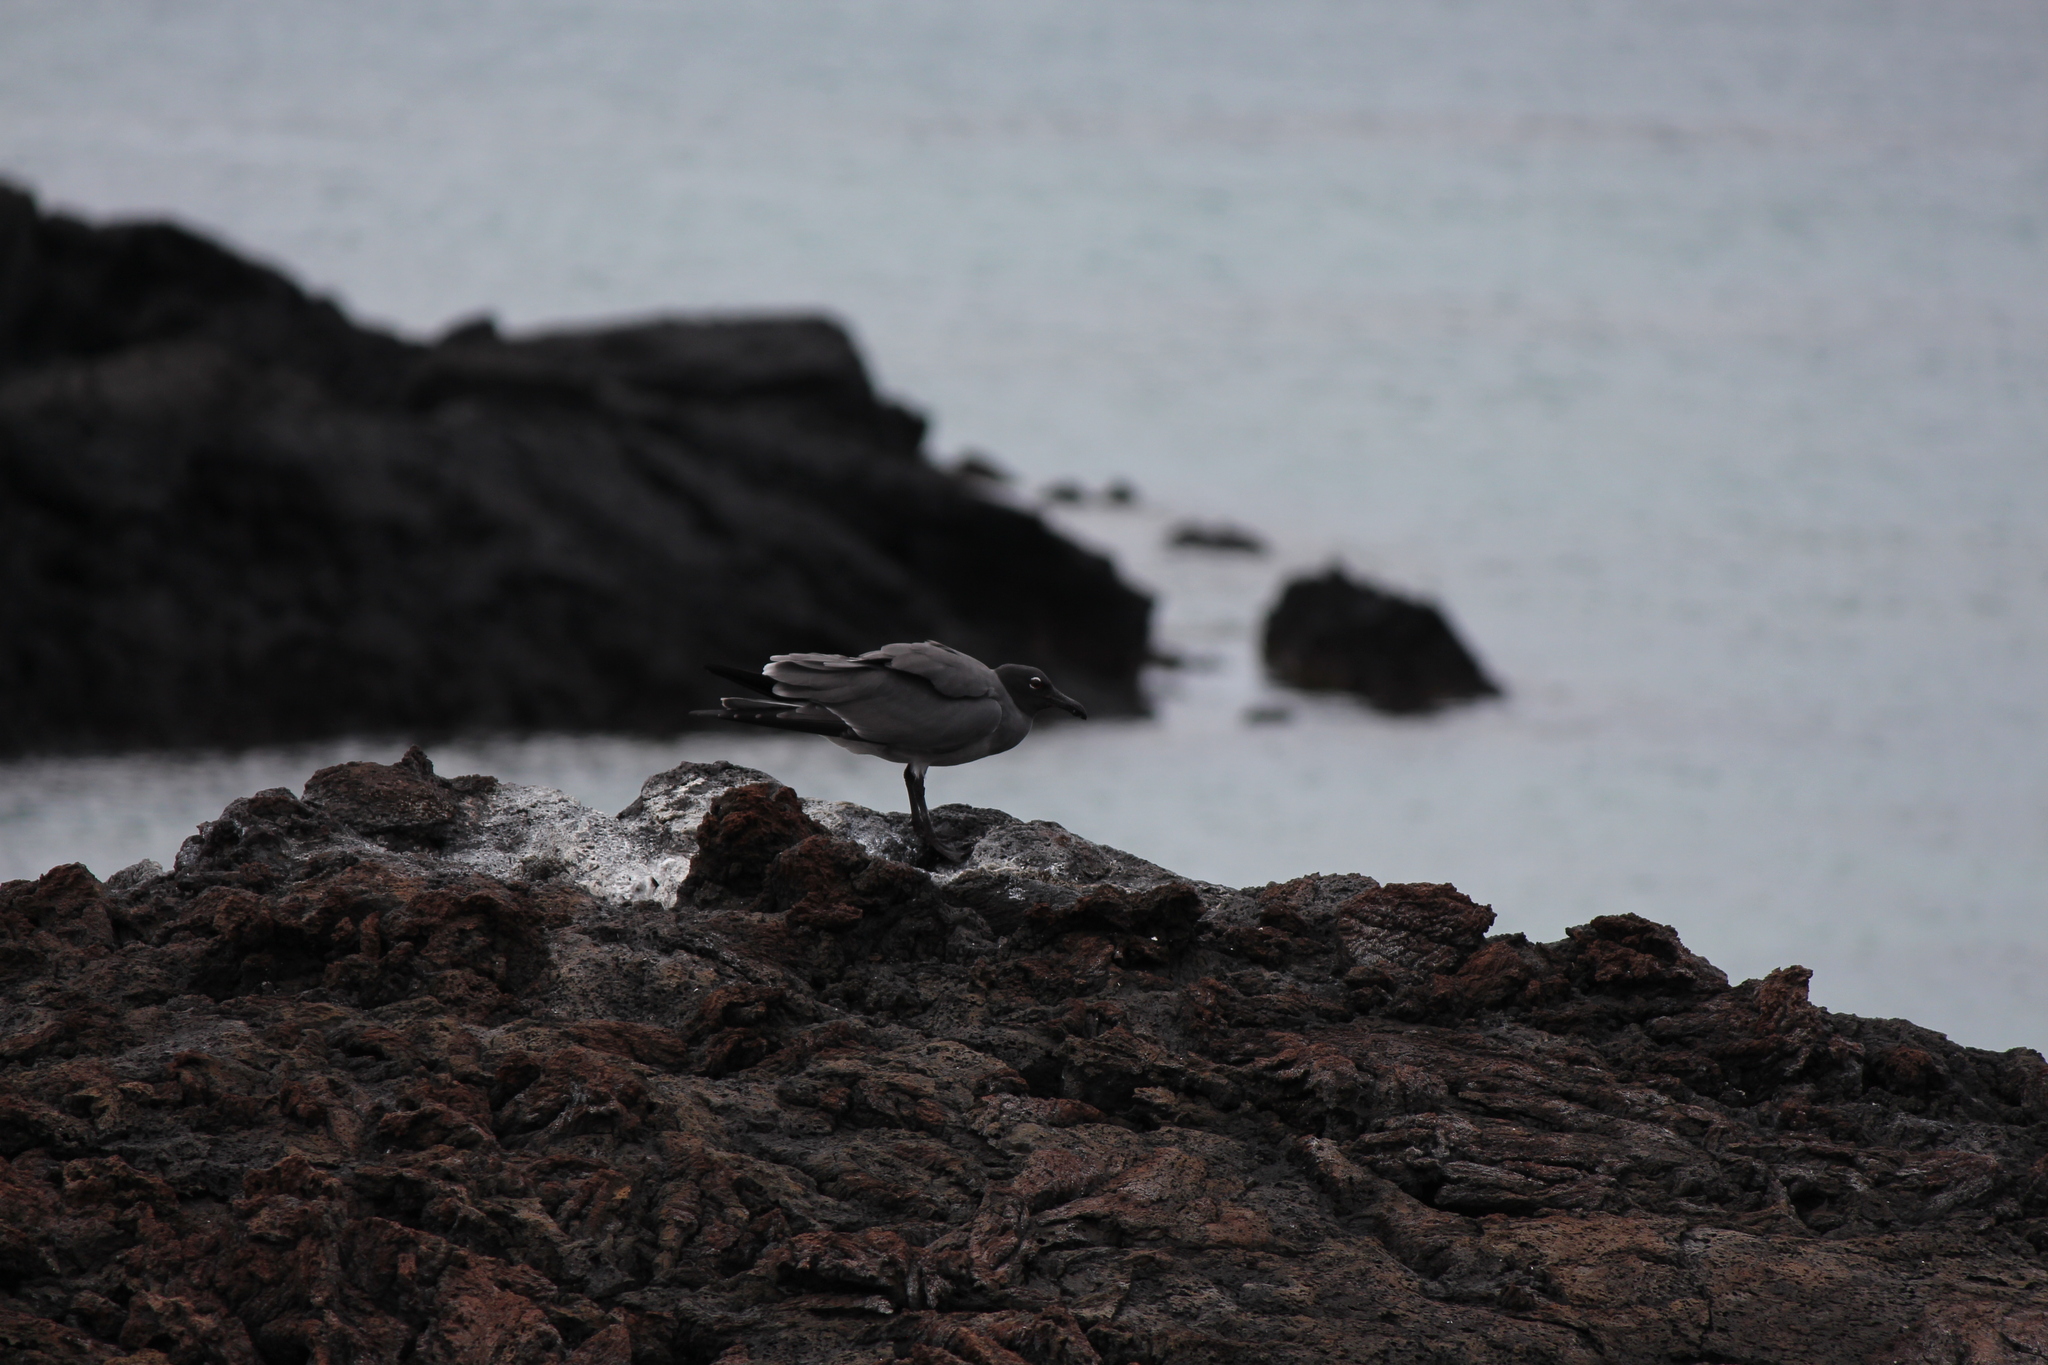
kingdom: Animalia
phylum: Chordata
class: Aves
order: Charadriiformes
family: Laridae
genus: Leucophaeus
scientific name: Leucophaeus fuliginosus
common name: Lava gull
